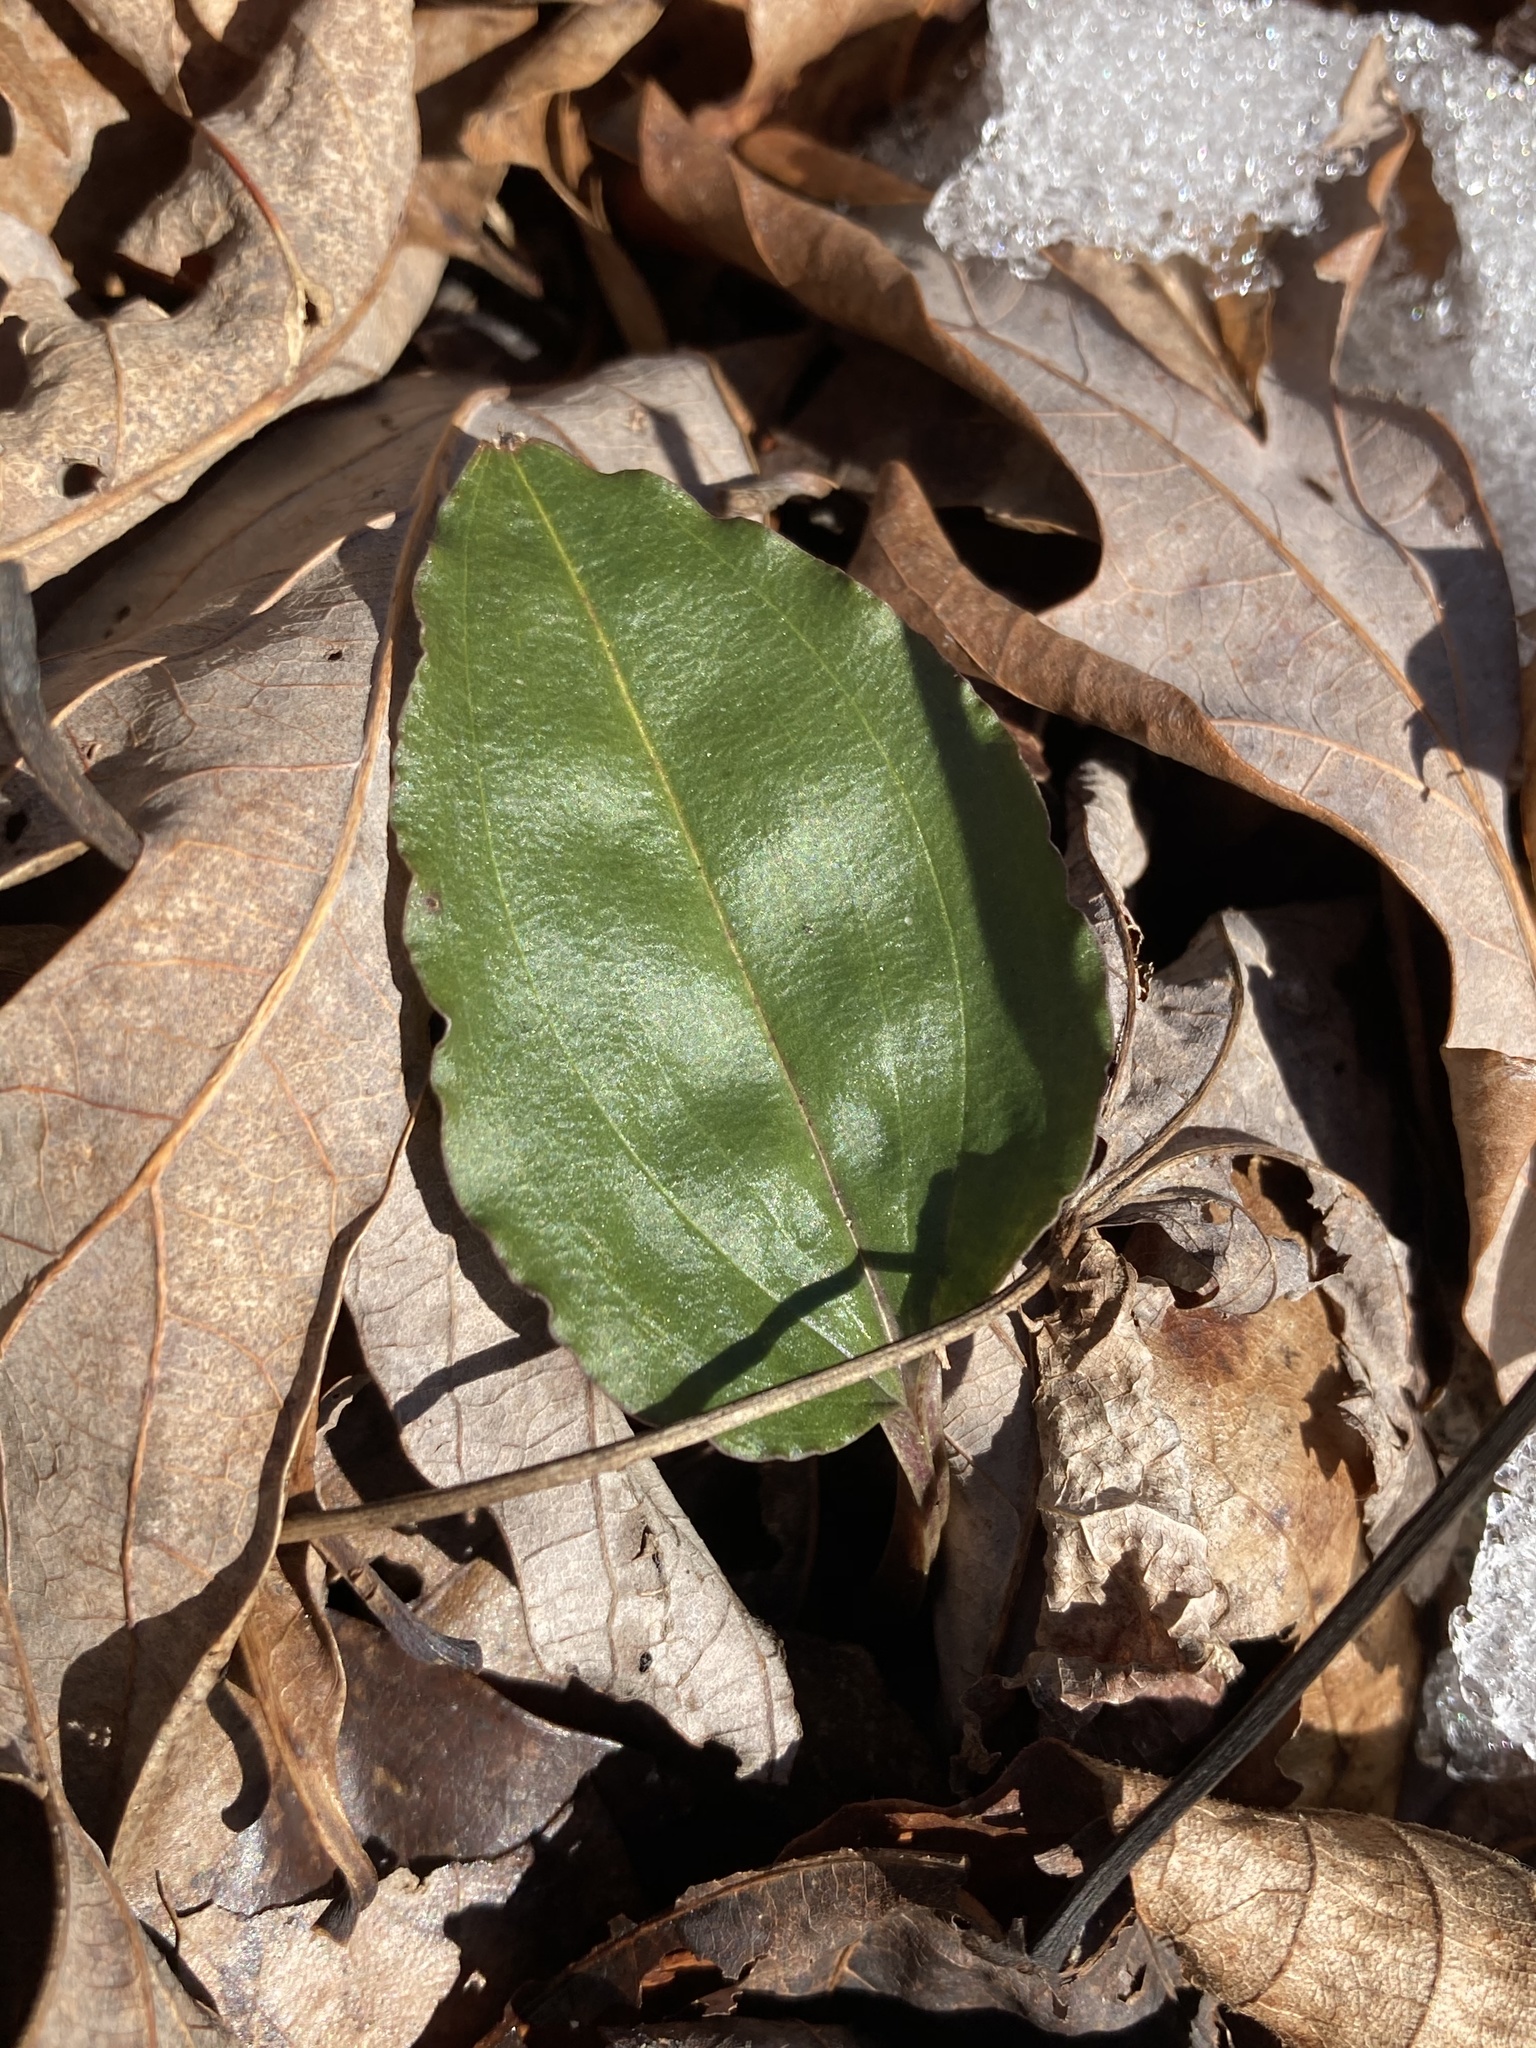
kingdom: Plantae
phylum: Tracheophyta
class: Liliopsida
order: Asparagales
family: Orchidaceae
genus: Tipularia
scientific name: Tipularia discolor
